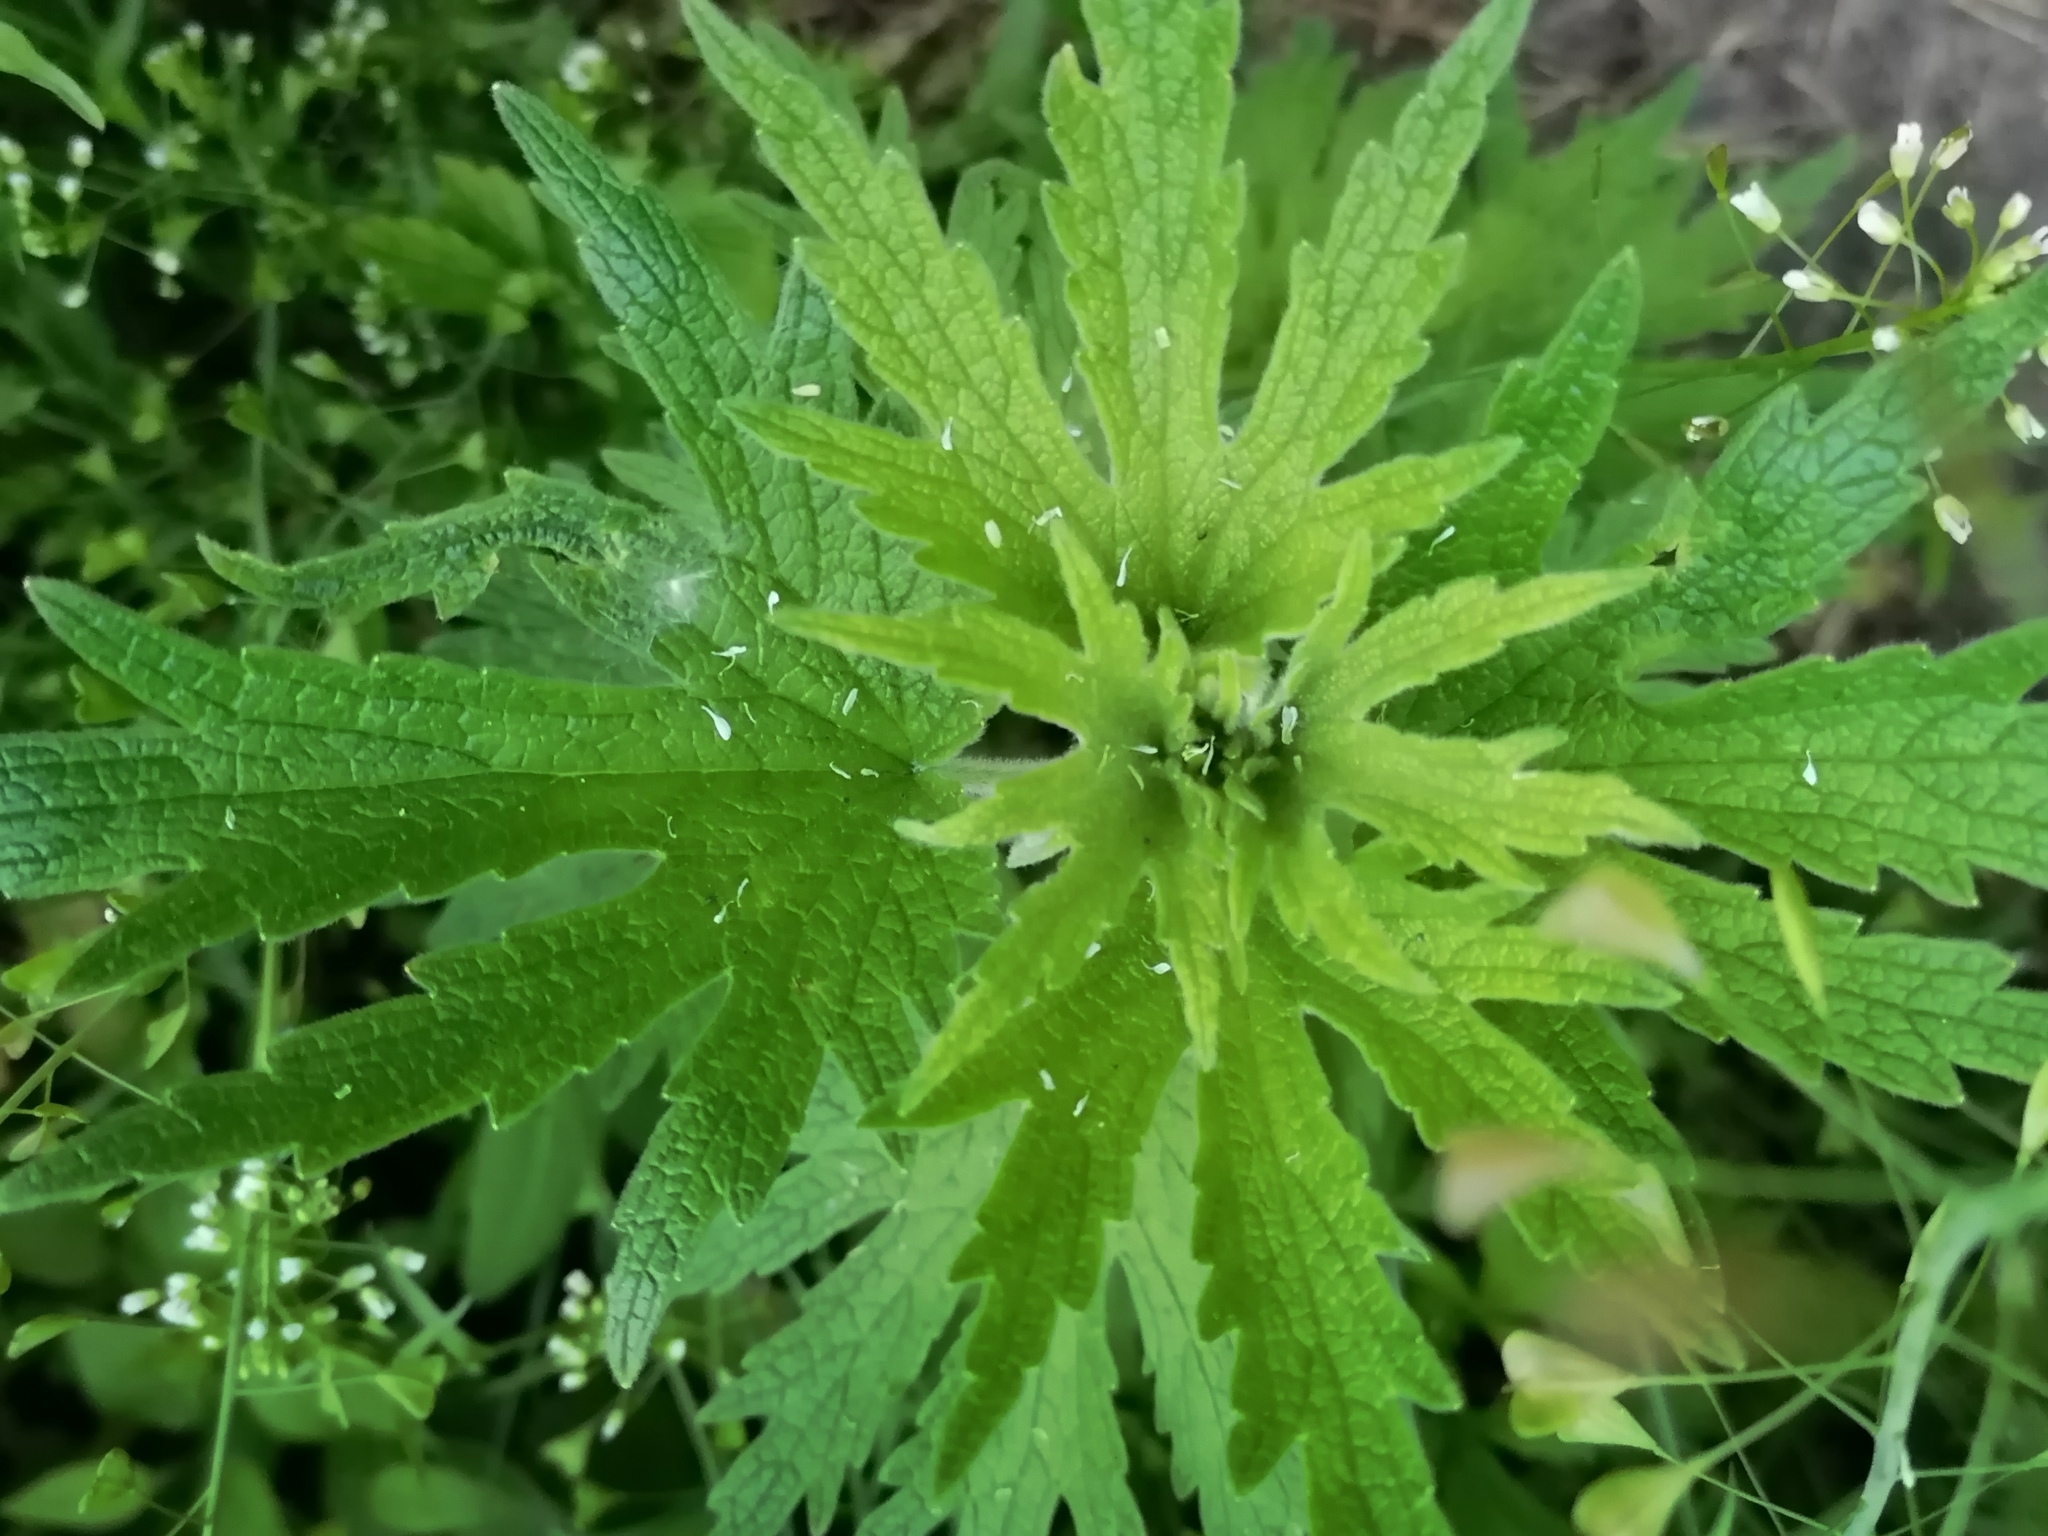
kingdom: Plantae
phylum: Tracheophyta
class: Magnoliopsida
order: Lamiales
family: Lamiaceae
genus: Leonurus
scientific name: Leonurus quinquelobatus
